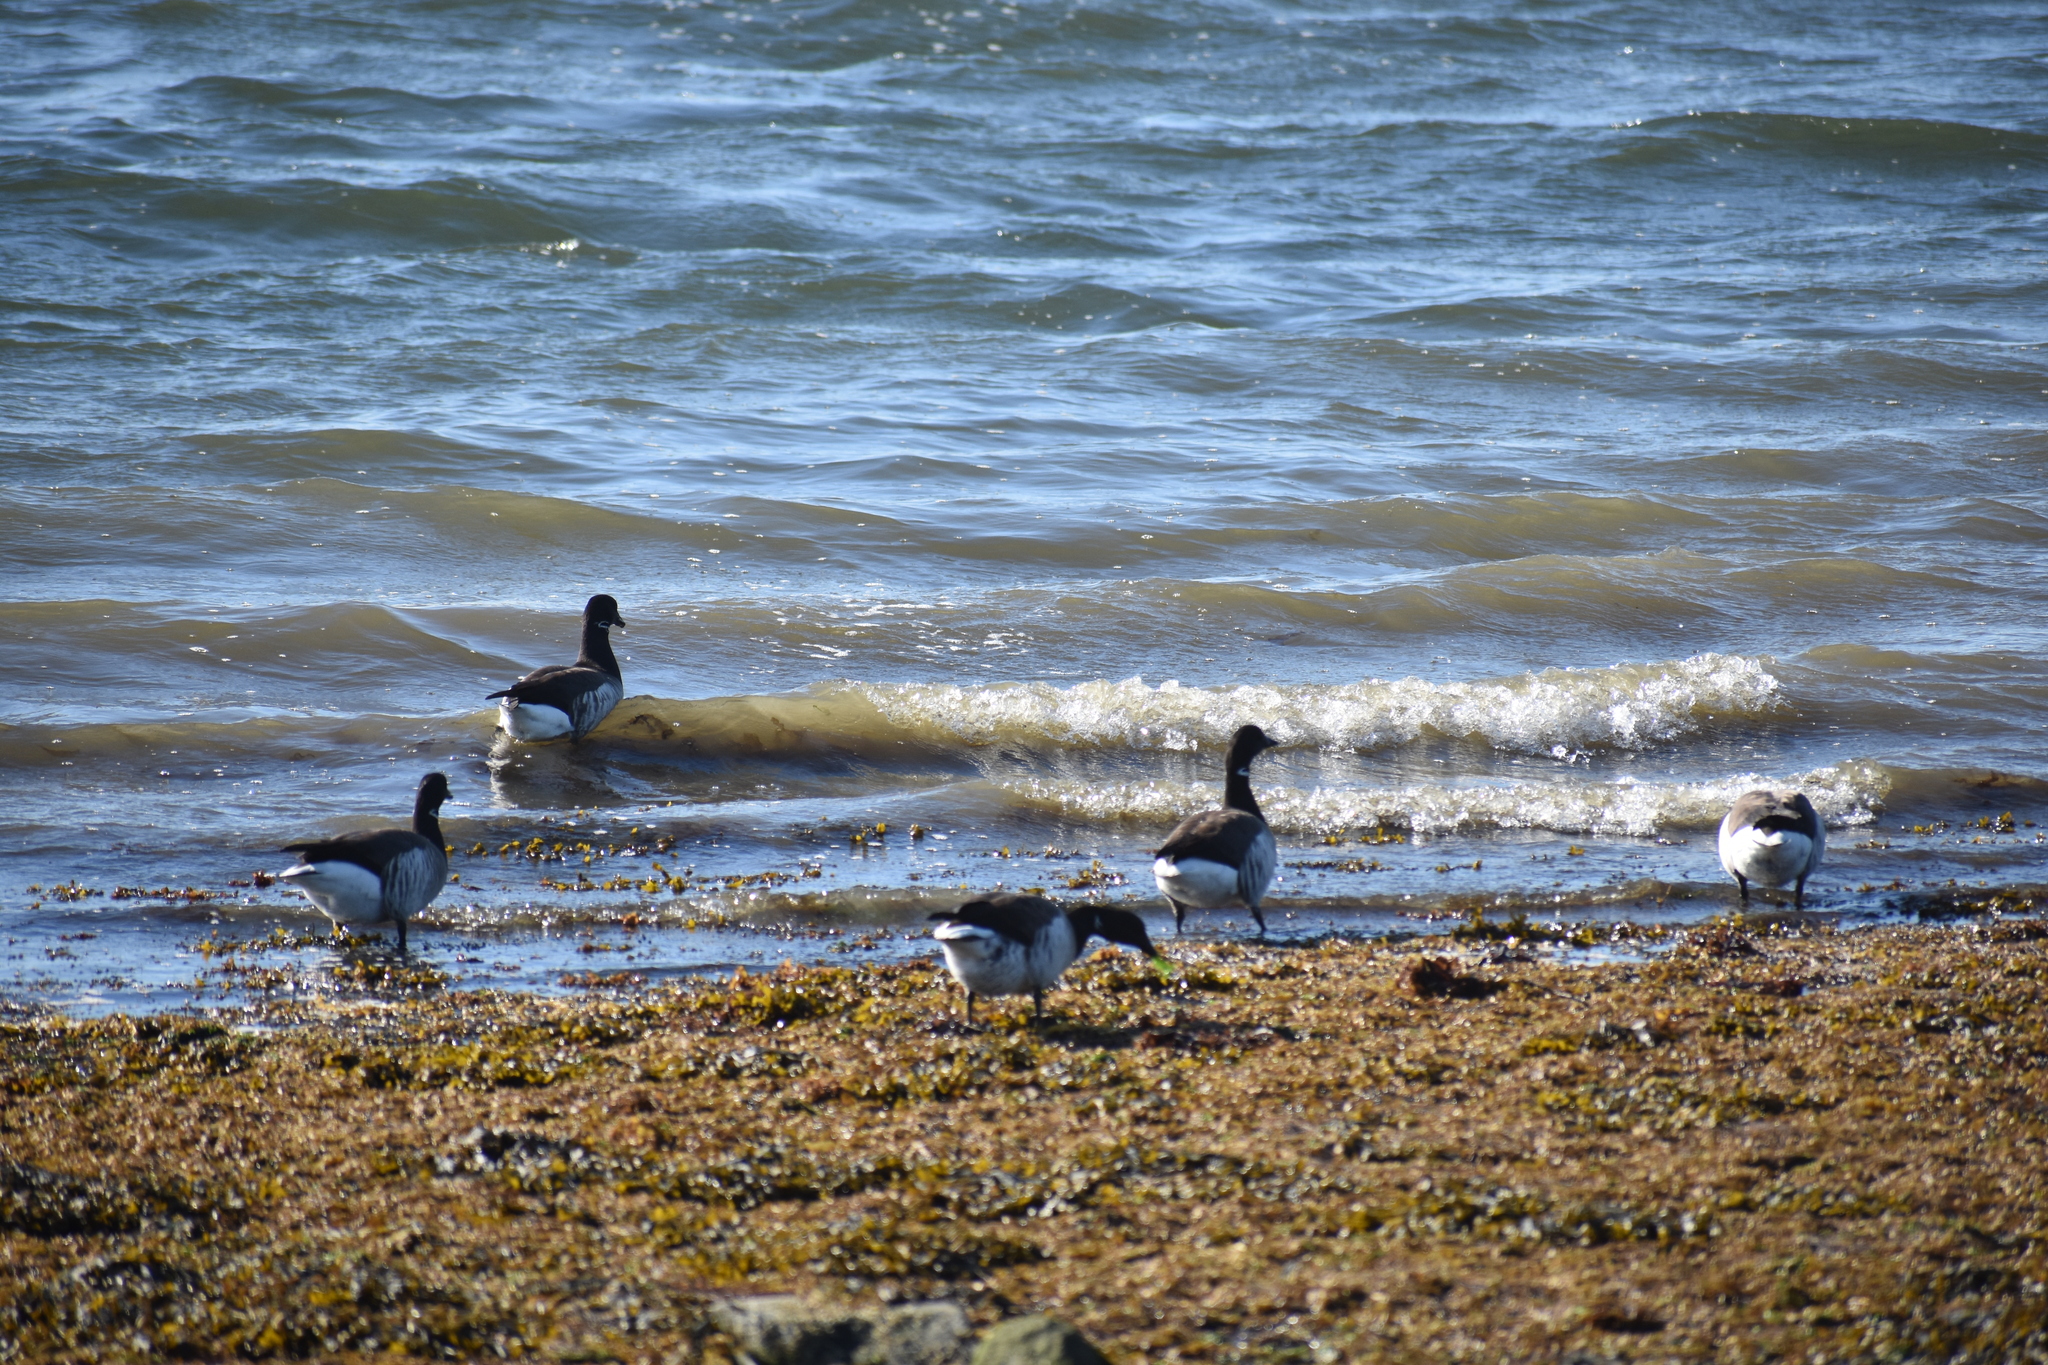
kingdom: Animalia
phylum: Chordata
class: Aves
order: Anseriformes
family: Anatidae
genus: Branta
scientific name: Branta bernicla
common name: Brant goose
